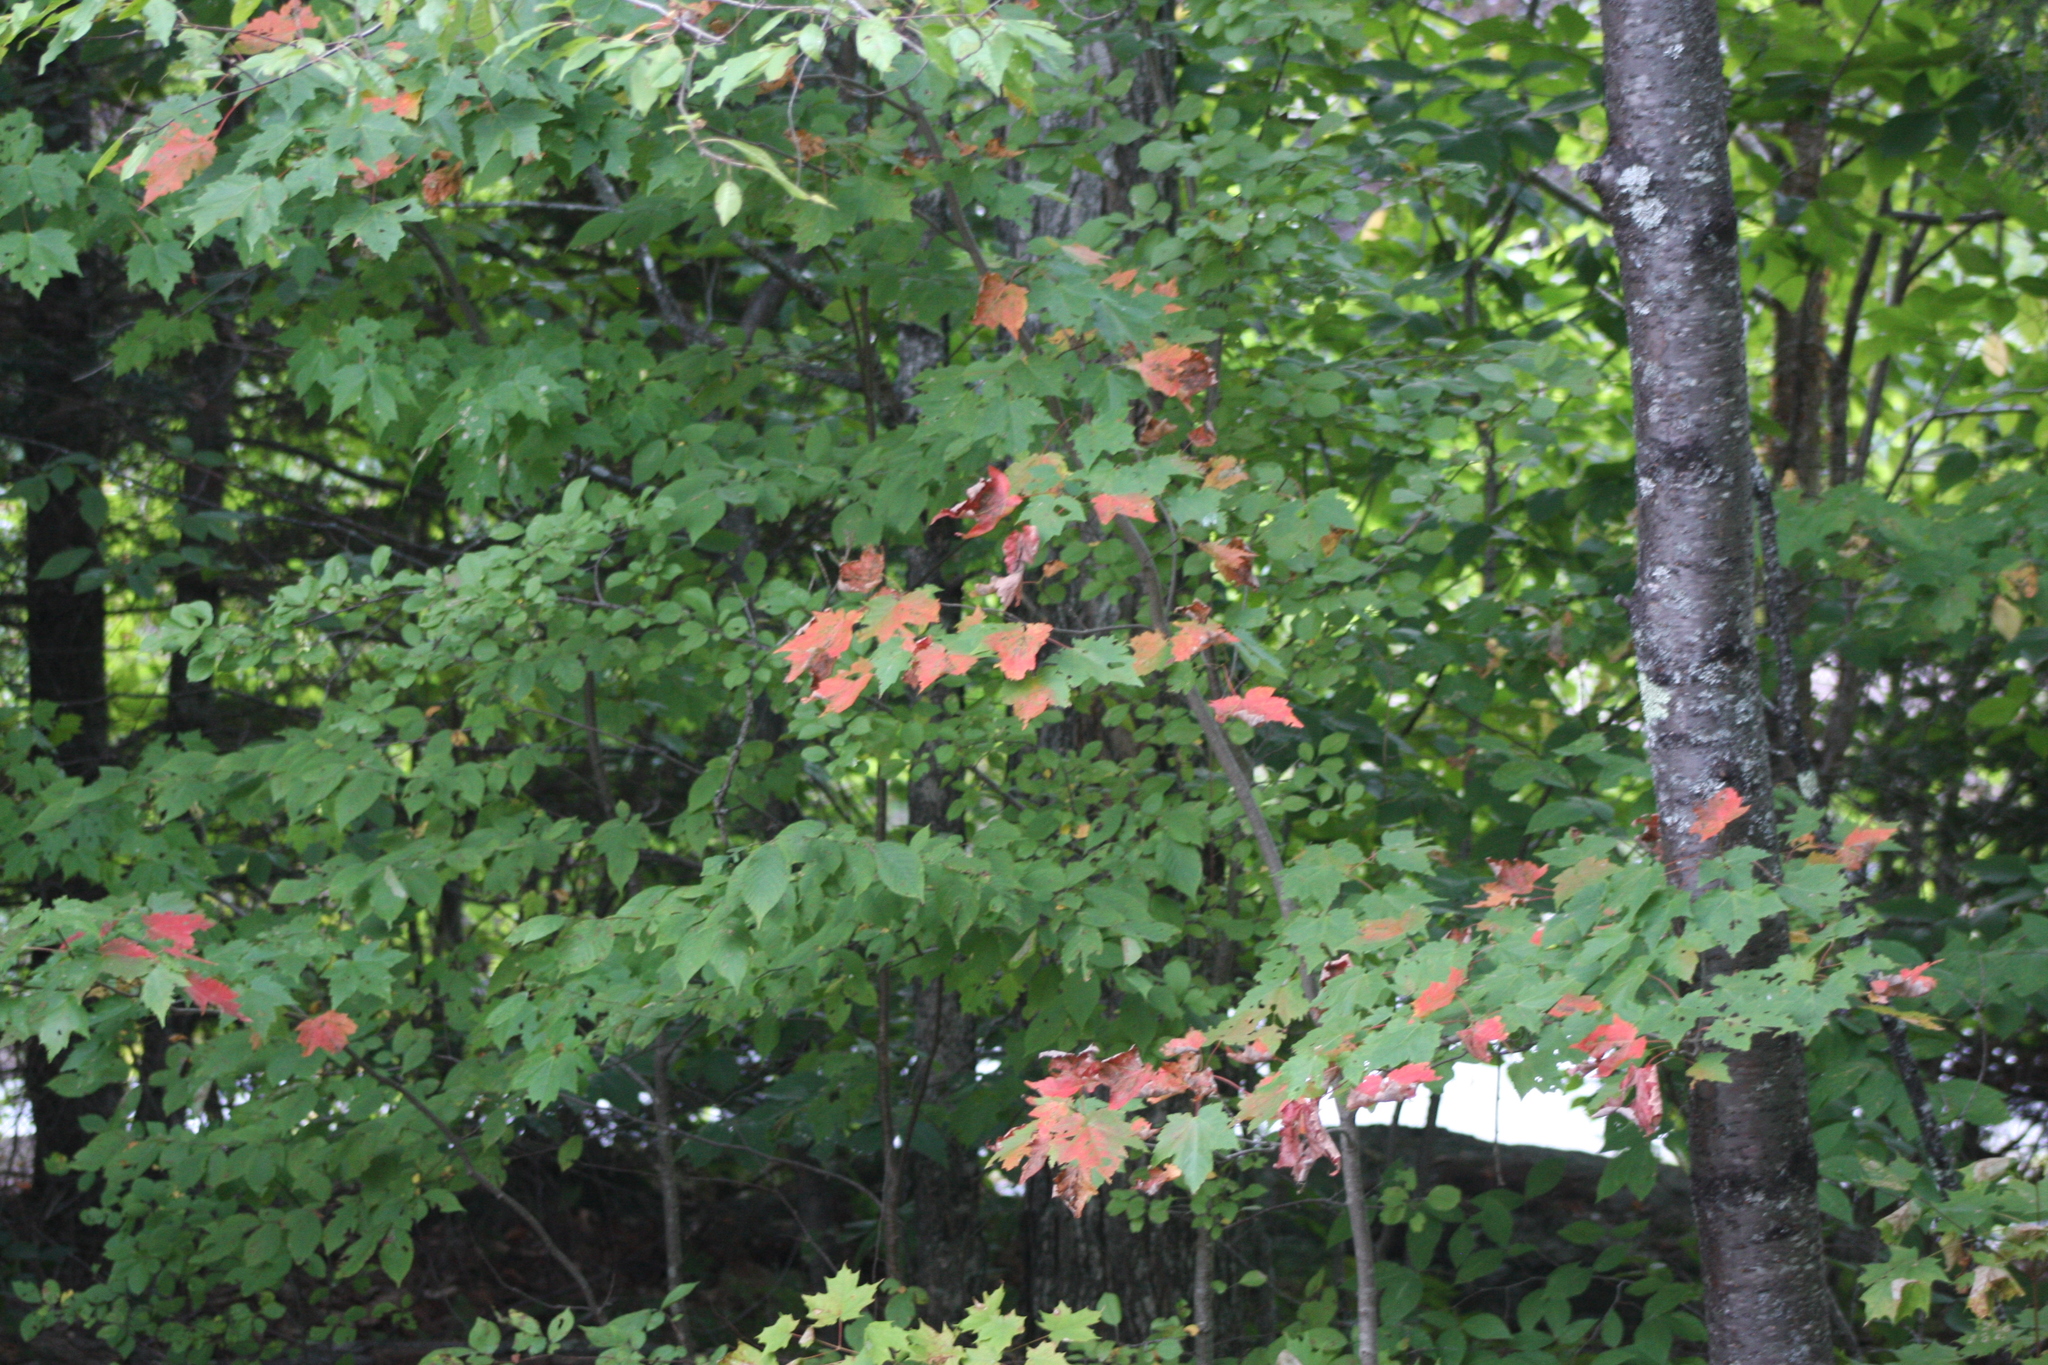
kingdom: Plantae
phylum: Tracheophyta
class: Magnoliopsida
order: Sapindales
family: Sapindaceae
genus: Acer
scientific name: Acer rubrum
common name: Red maple
